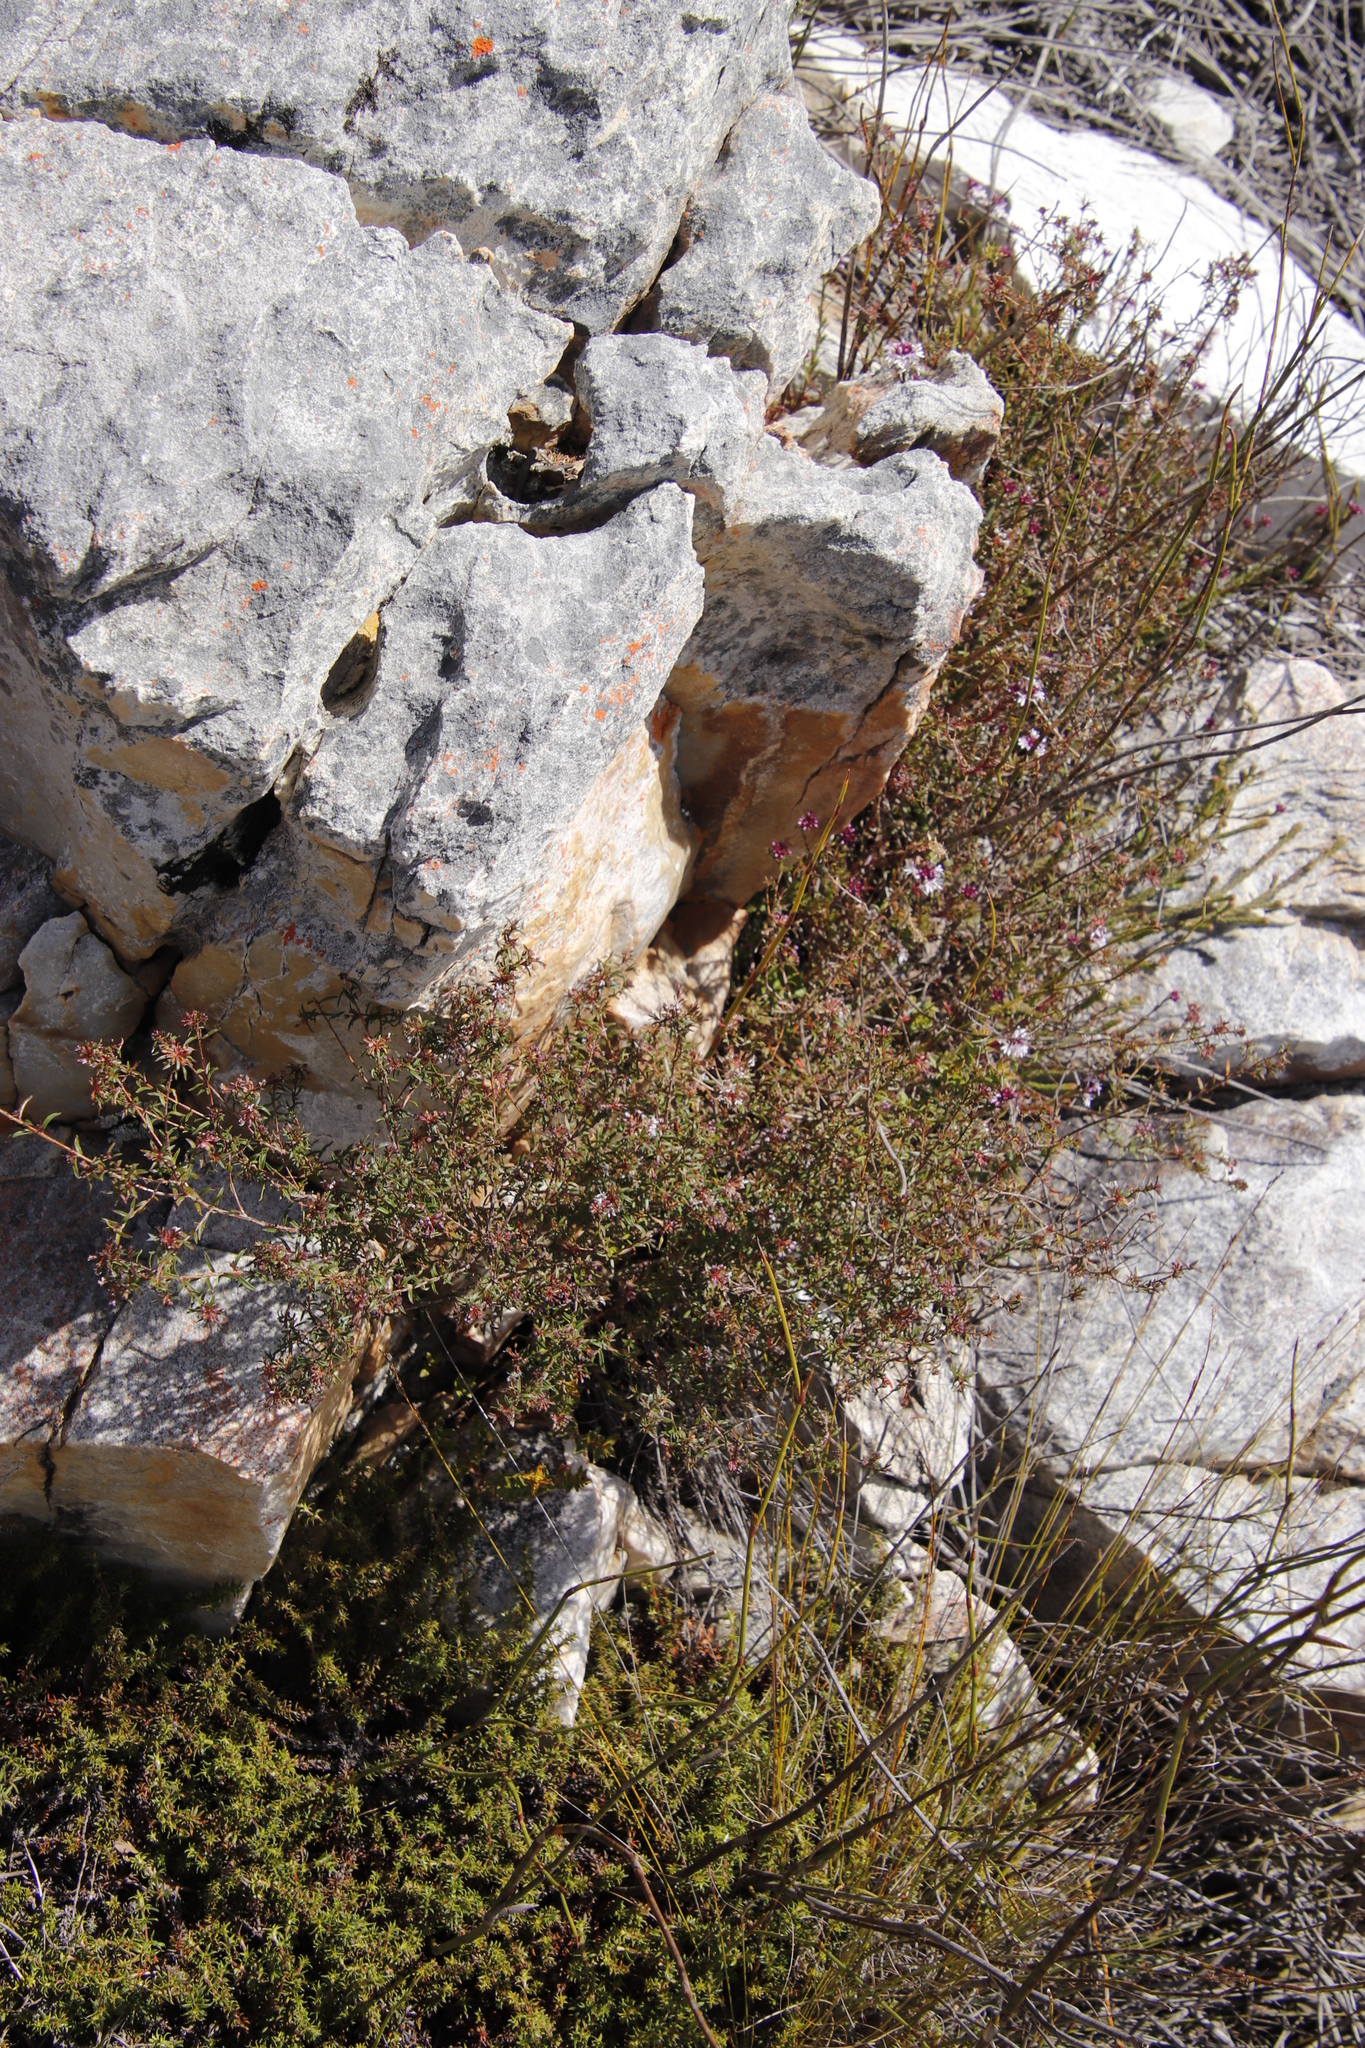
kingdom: Plantae
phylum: Tracheophyta
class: Magnoliopsida
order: Asterales
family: Campanulaceae
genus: Lobelia
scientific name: Lobelia jasionoides
